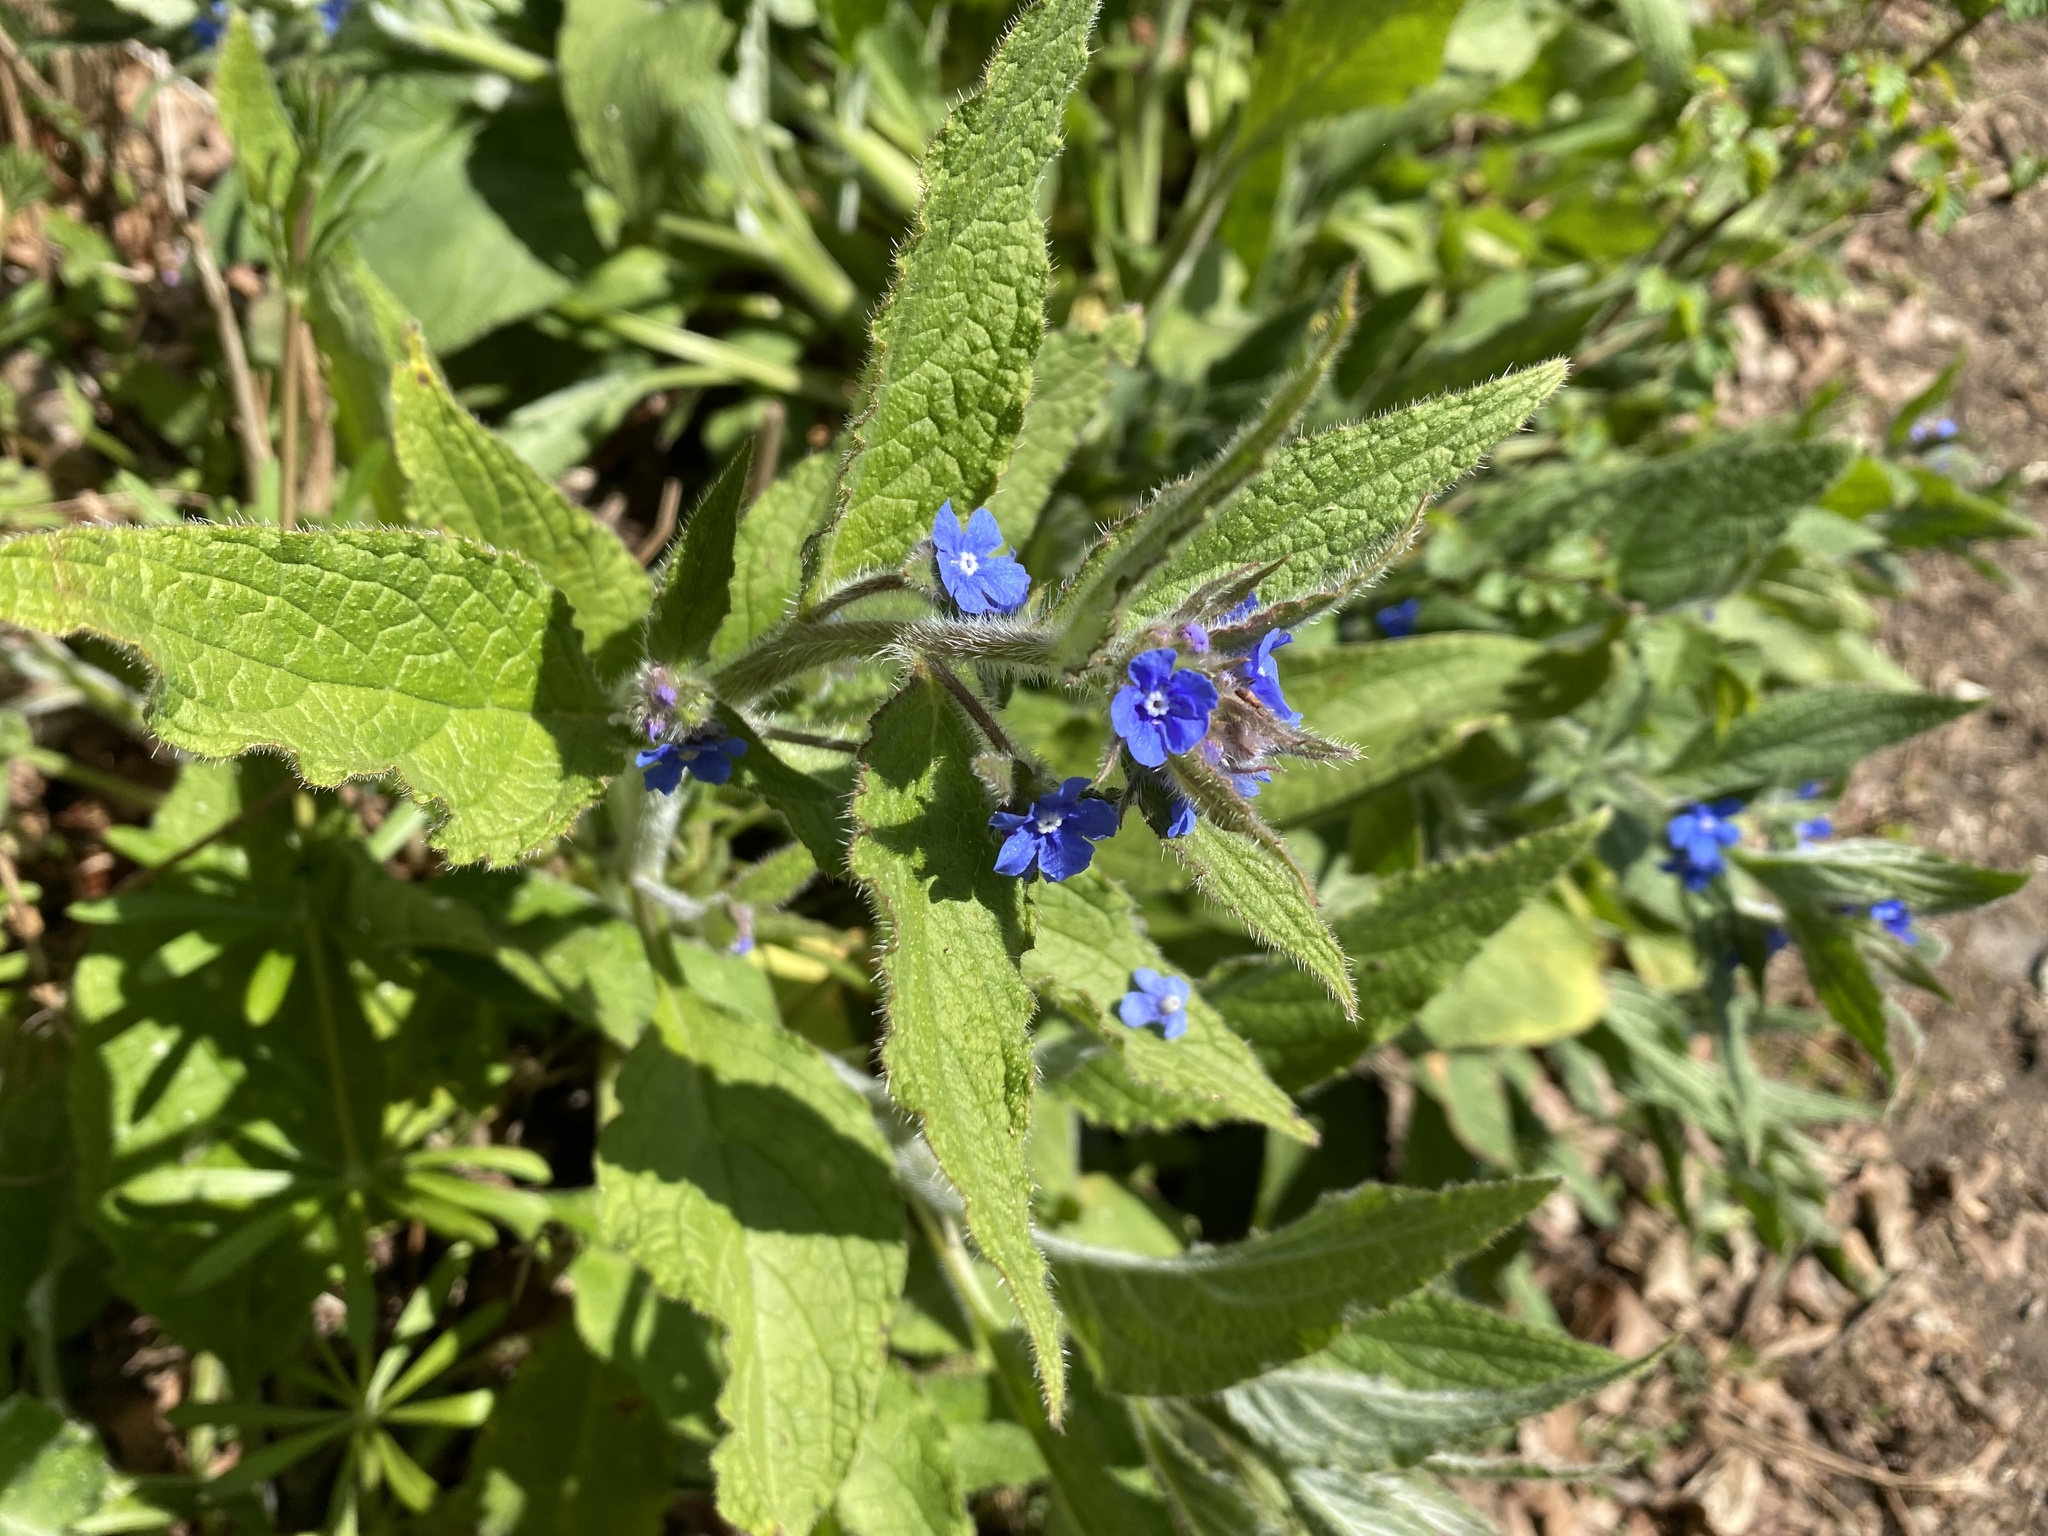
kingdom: Plantae
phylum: Tracheophyta
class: Magnoliopsida
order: Boraginales
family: Boraginaceae
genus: Pentaglottis
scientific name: Pentaglottis sempervirens
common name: Green alkanet
